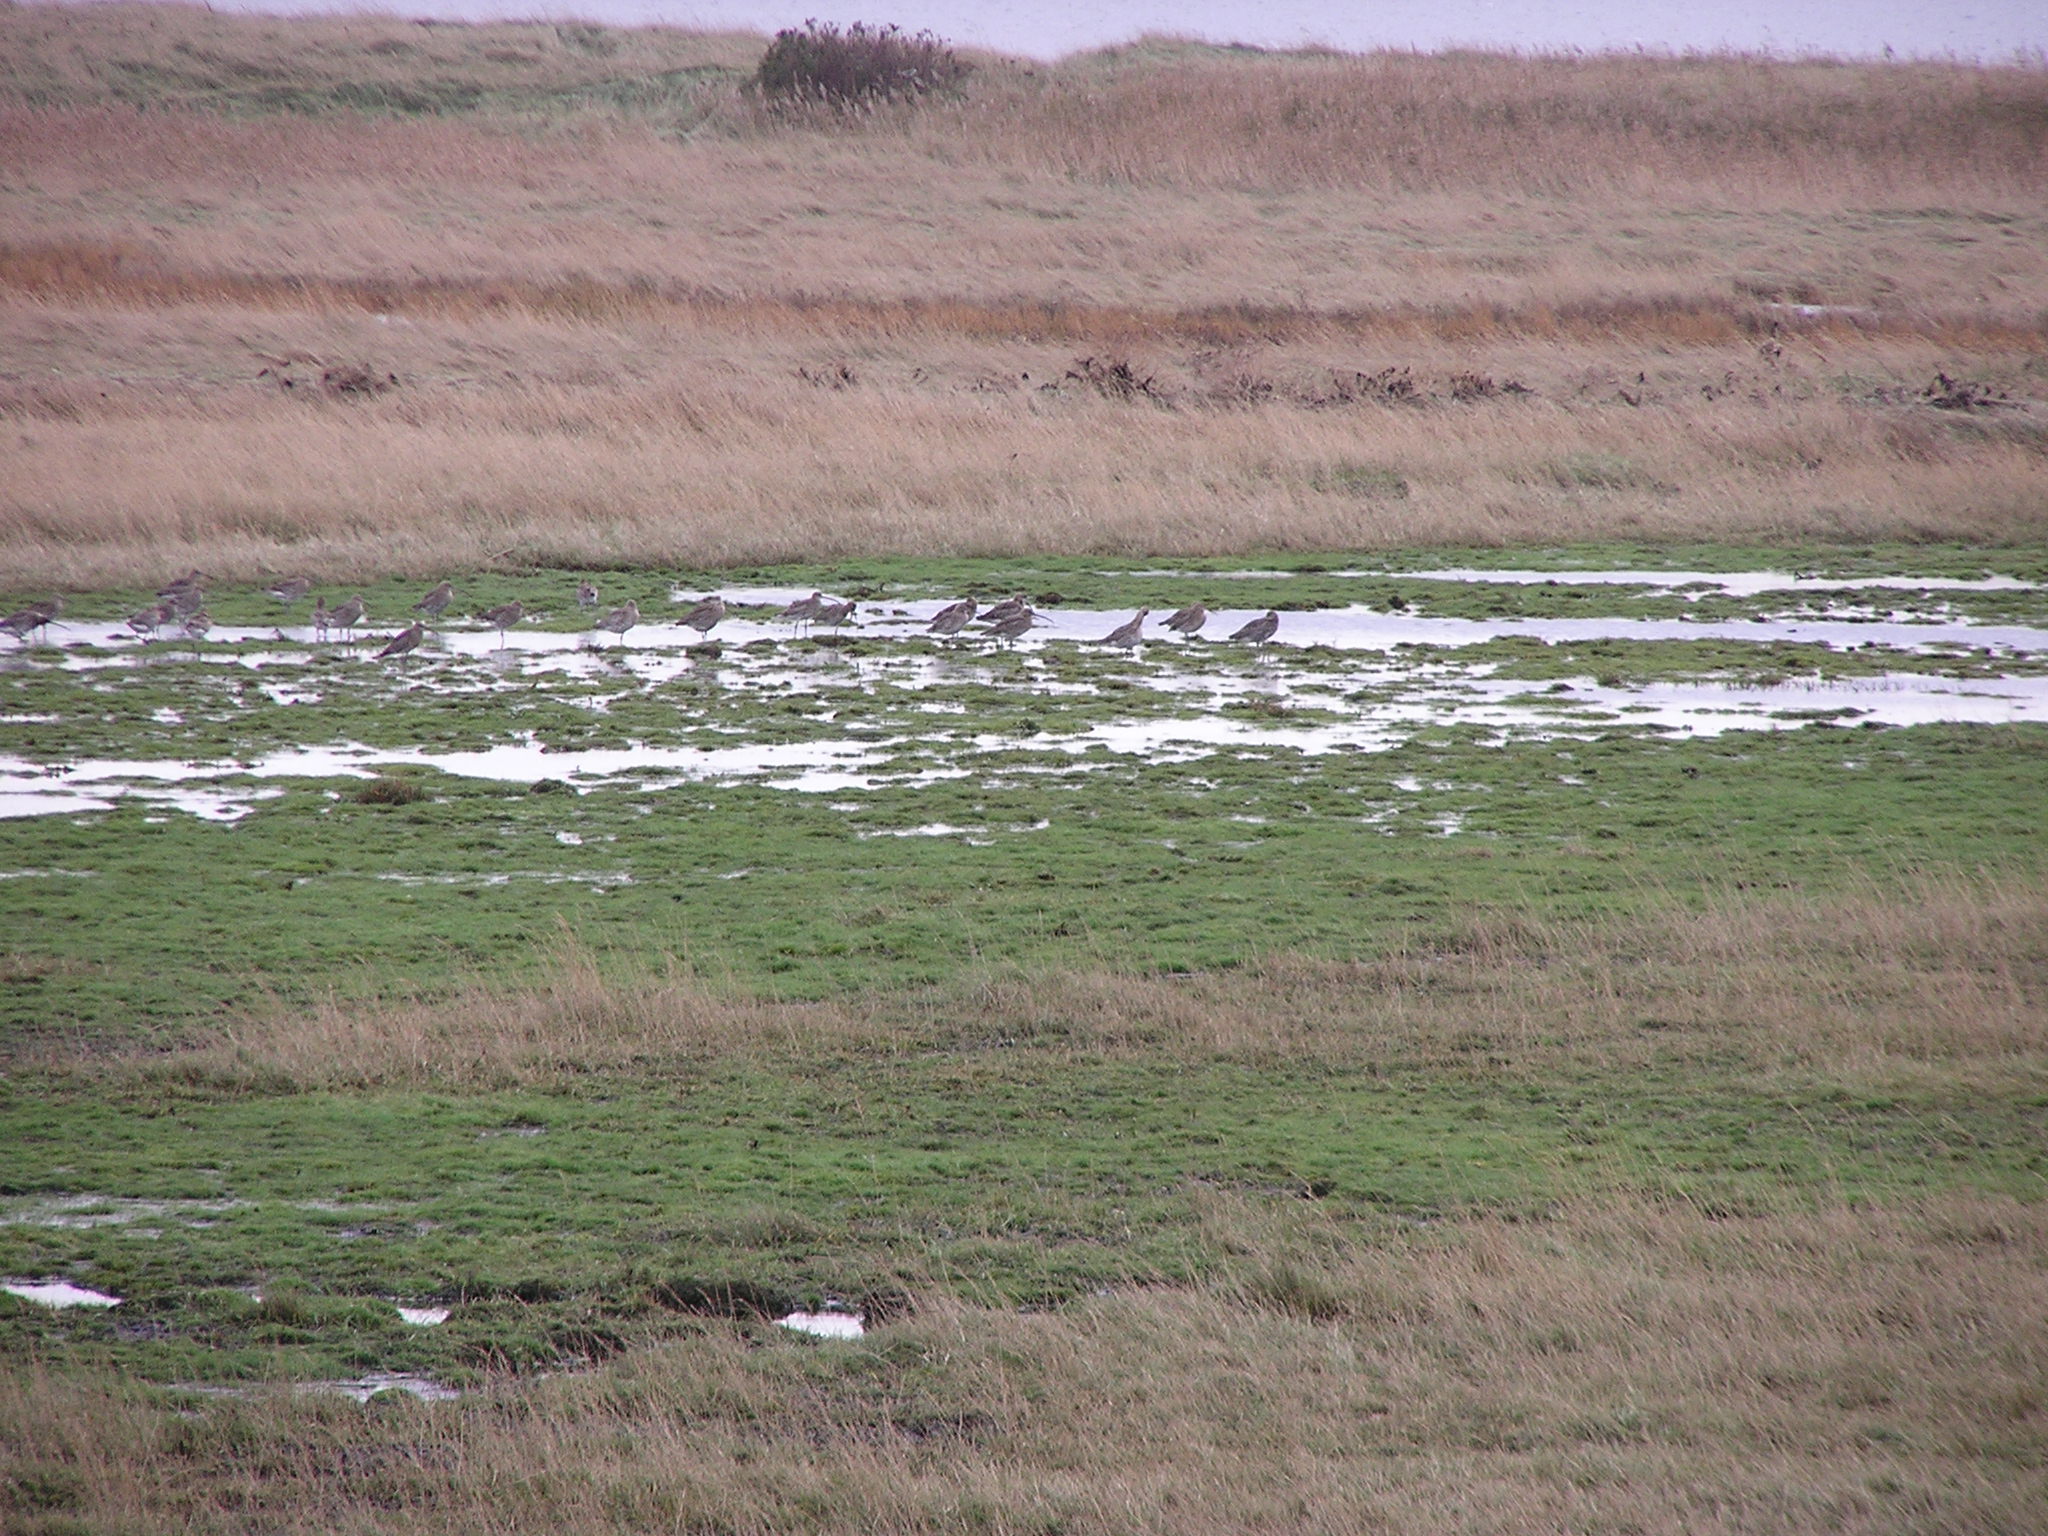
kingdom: Animalia
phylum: Chordata
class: Aves
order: Charadriiformes
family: Scolopacidae
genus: Numenius
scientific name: Numenius arquata
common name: Eurasian curlew
